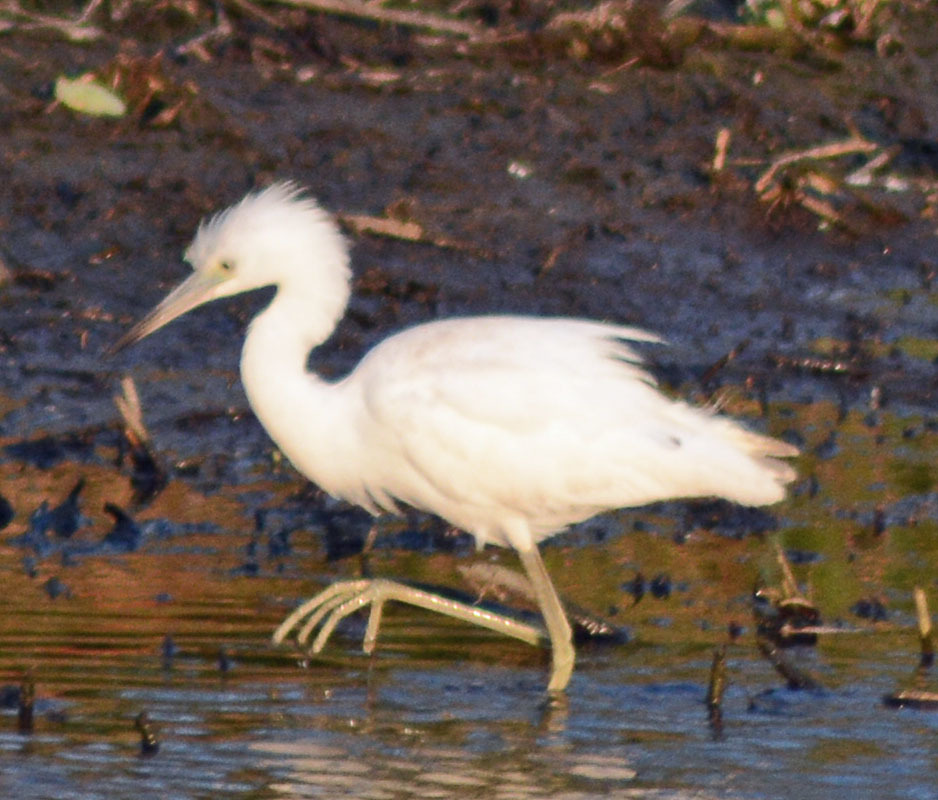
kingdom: Animalia
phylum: Chordata
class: Aves
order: Pelecaniformes
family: Ardeidae
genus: Egretta
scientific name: Egretta caerulea
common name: Little blue heron
